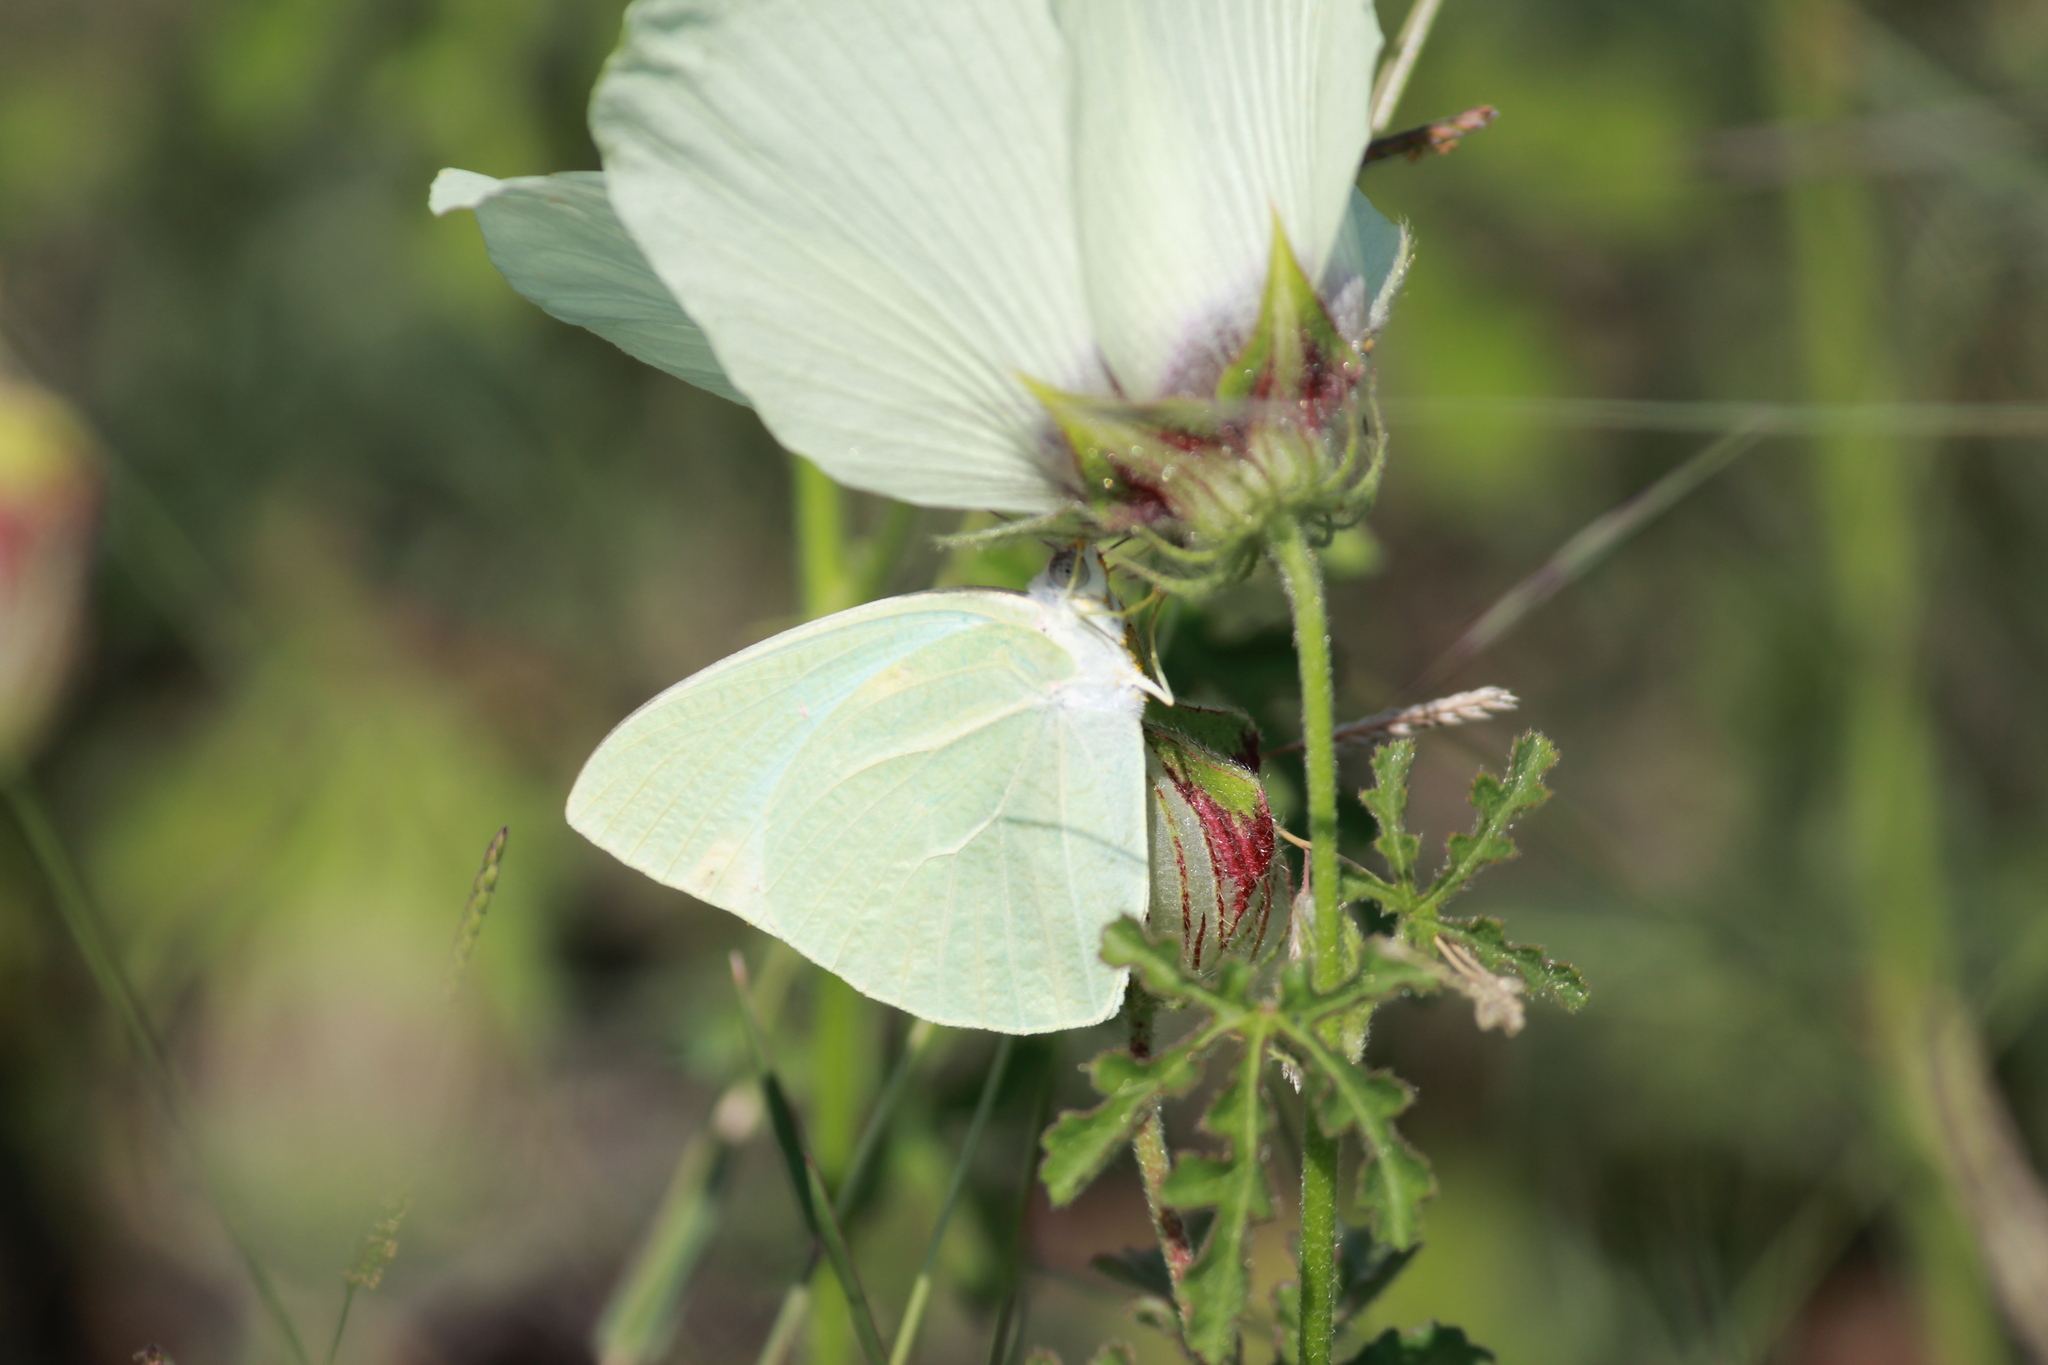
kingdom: Animalia
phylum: Arthropoda
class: Insecta
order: Lepidoptera
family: Pieridae
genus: Catopsilia
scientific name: Catopsilia florella
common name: African migrant
